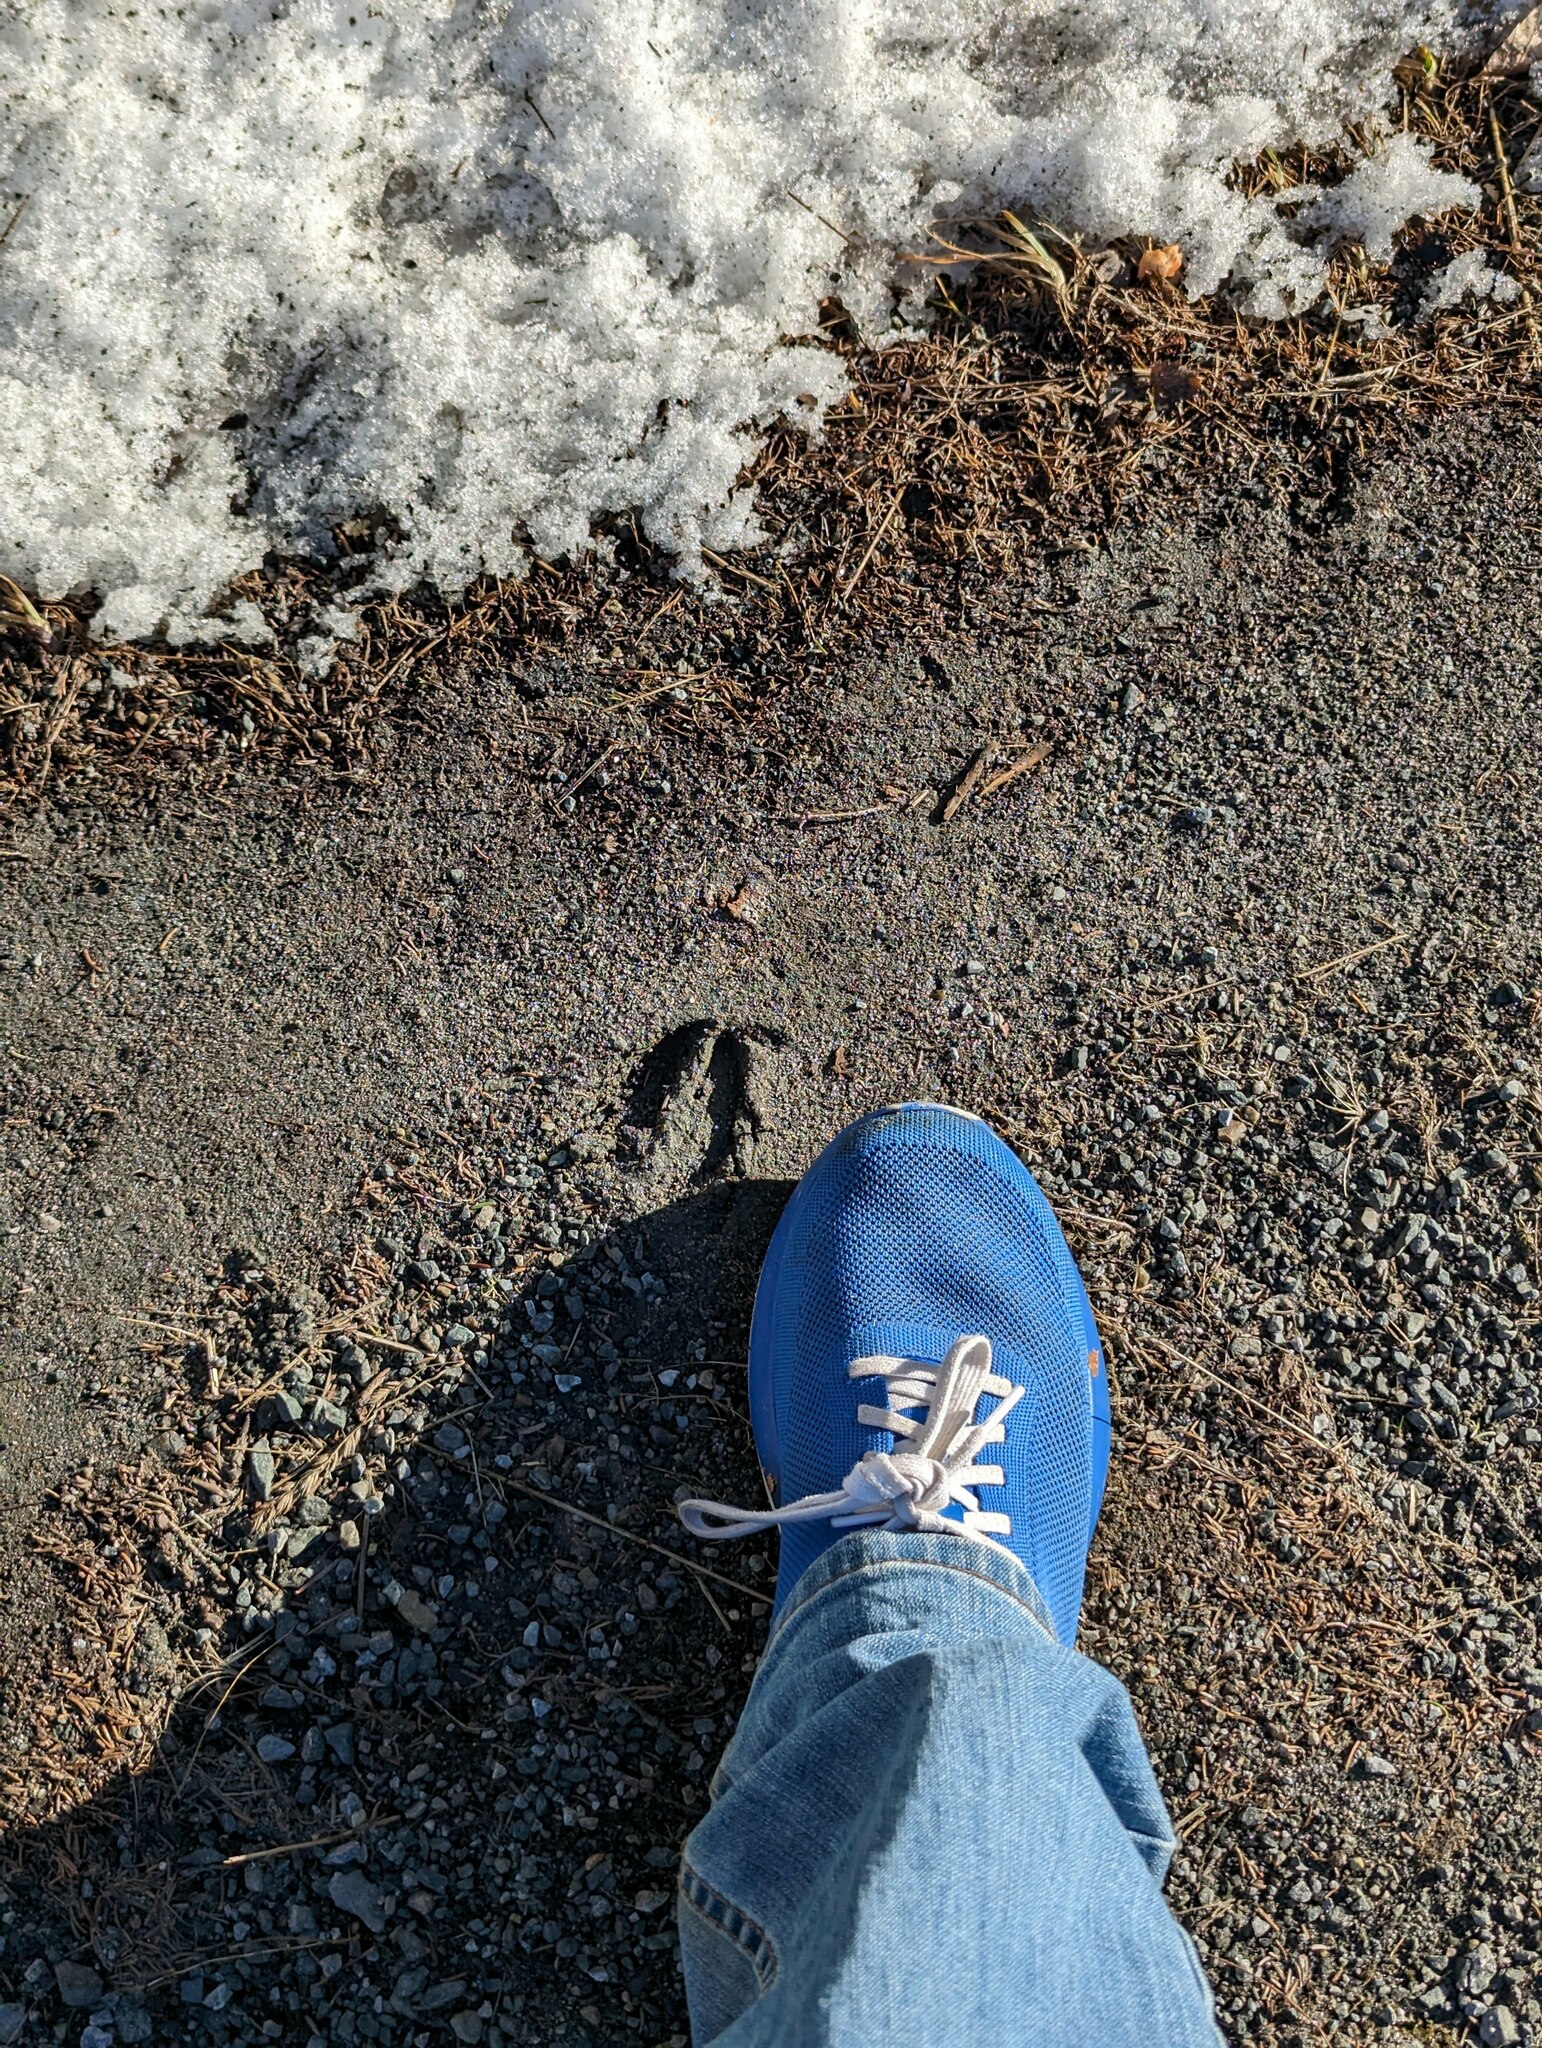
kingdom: Animalia
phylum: Chordata
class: Mammalia
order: Artiodactyla
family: Cervidae
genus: Odocoileus
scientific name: Odocoileus virginianus
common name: White-tailed deer
